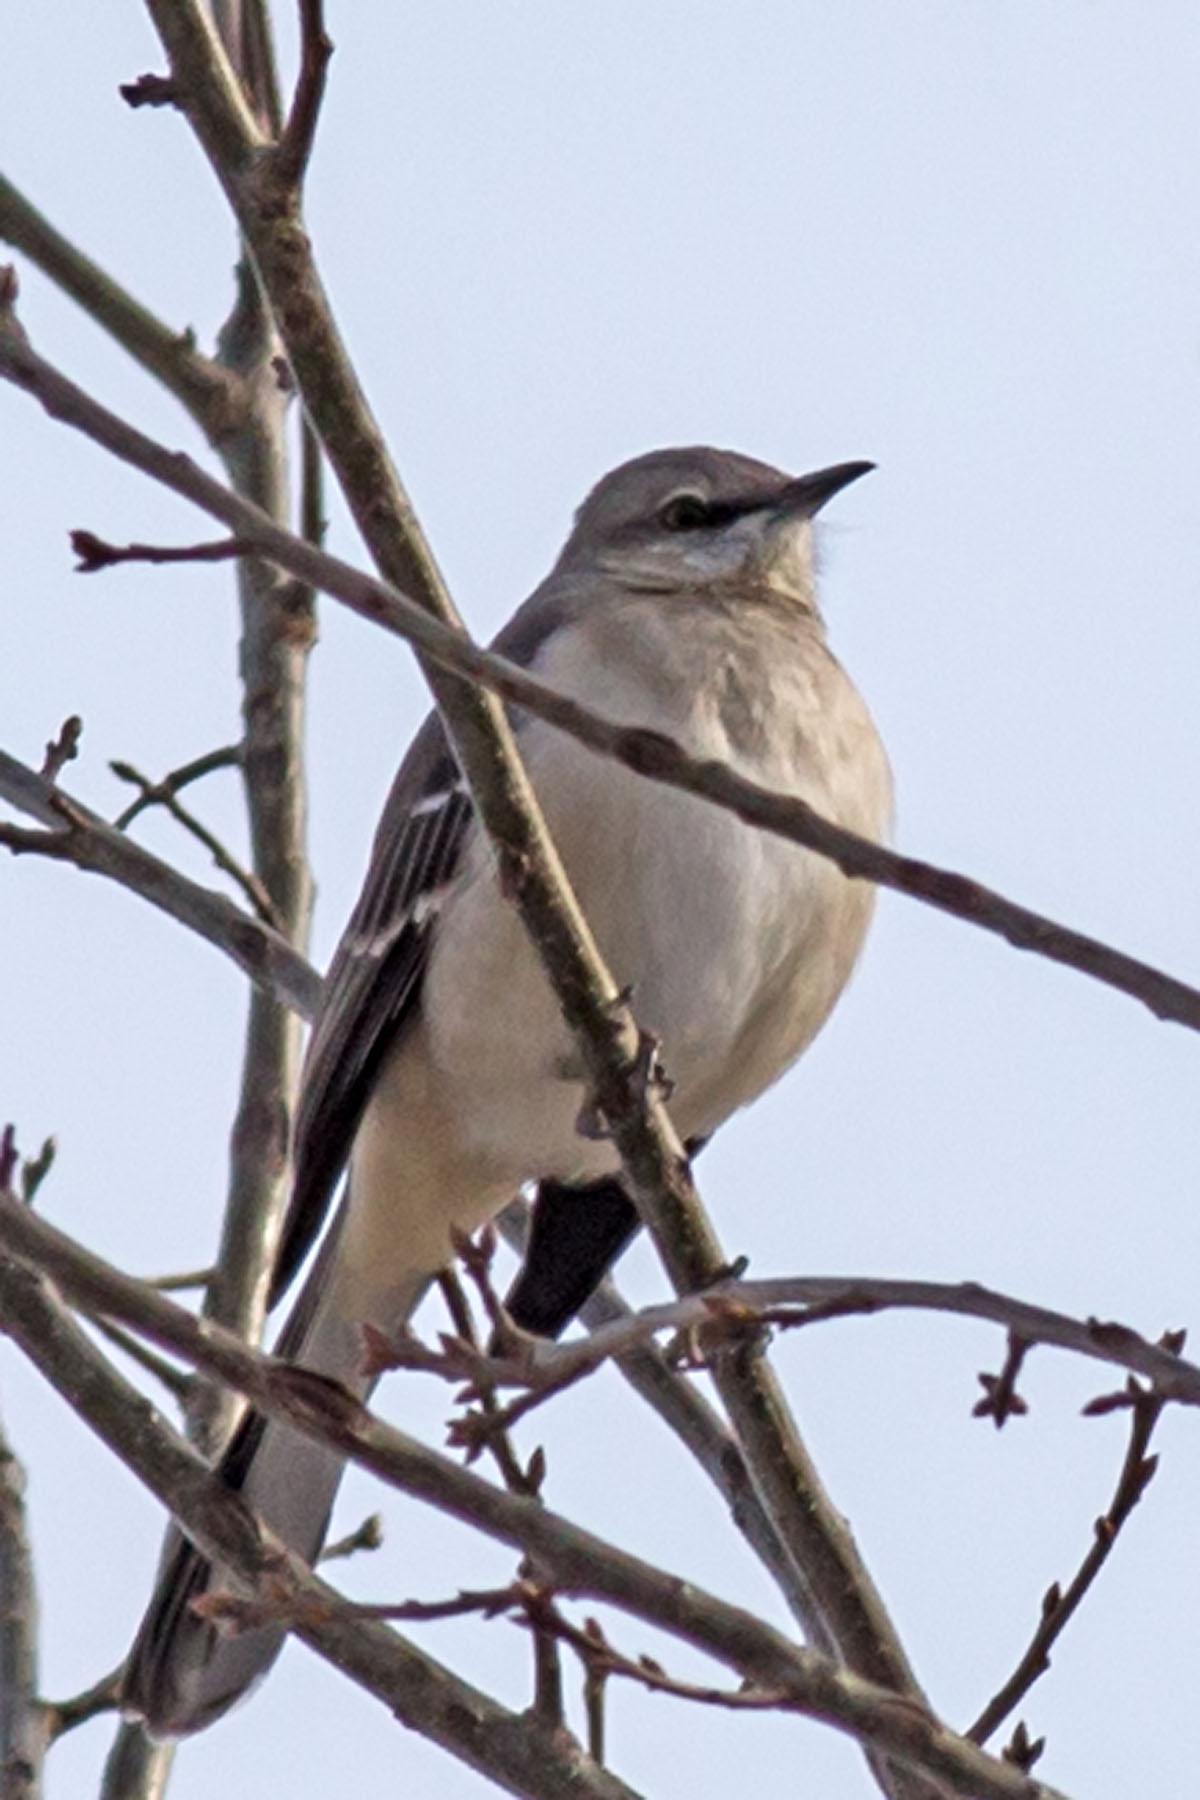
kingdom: Animalia
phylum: Chordata
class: Aves
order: Passeriformes
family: Mimidae
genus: Mimus
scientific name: Mimus polyglottos
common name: Northern mockingbird
